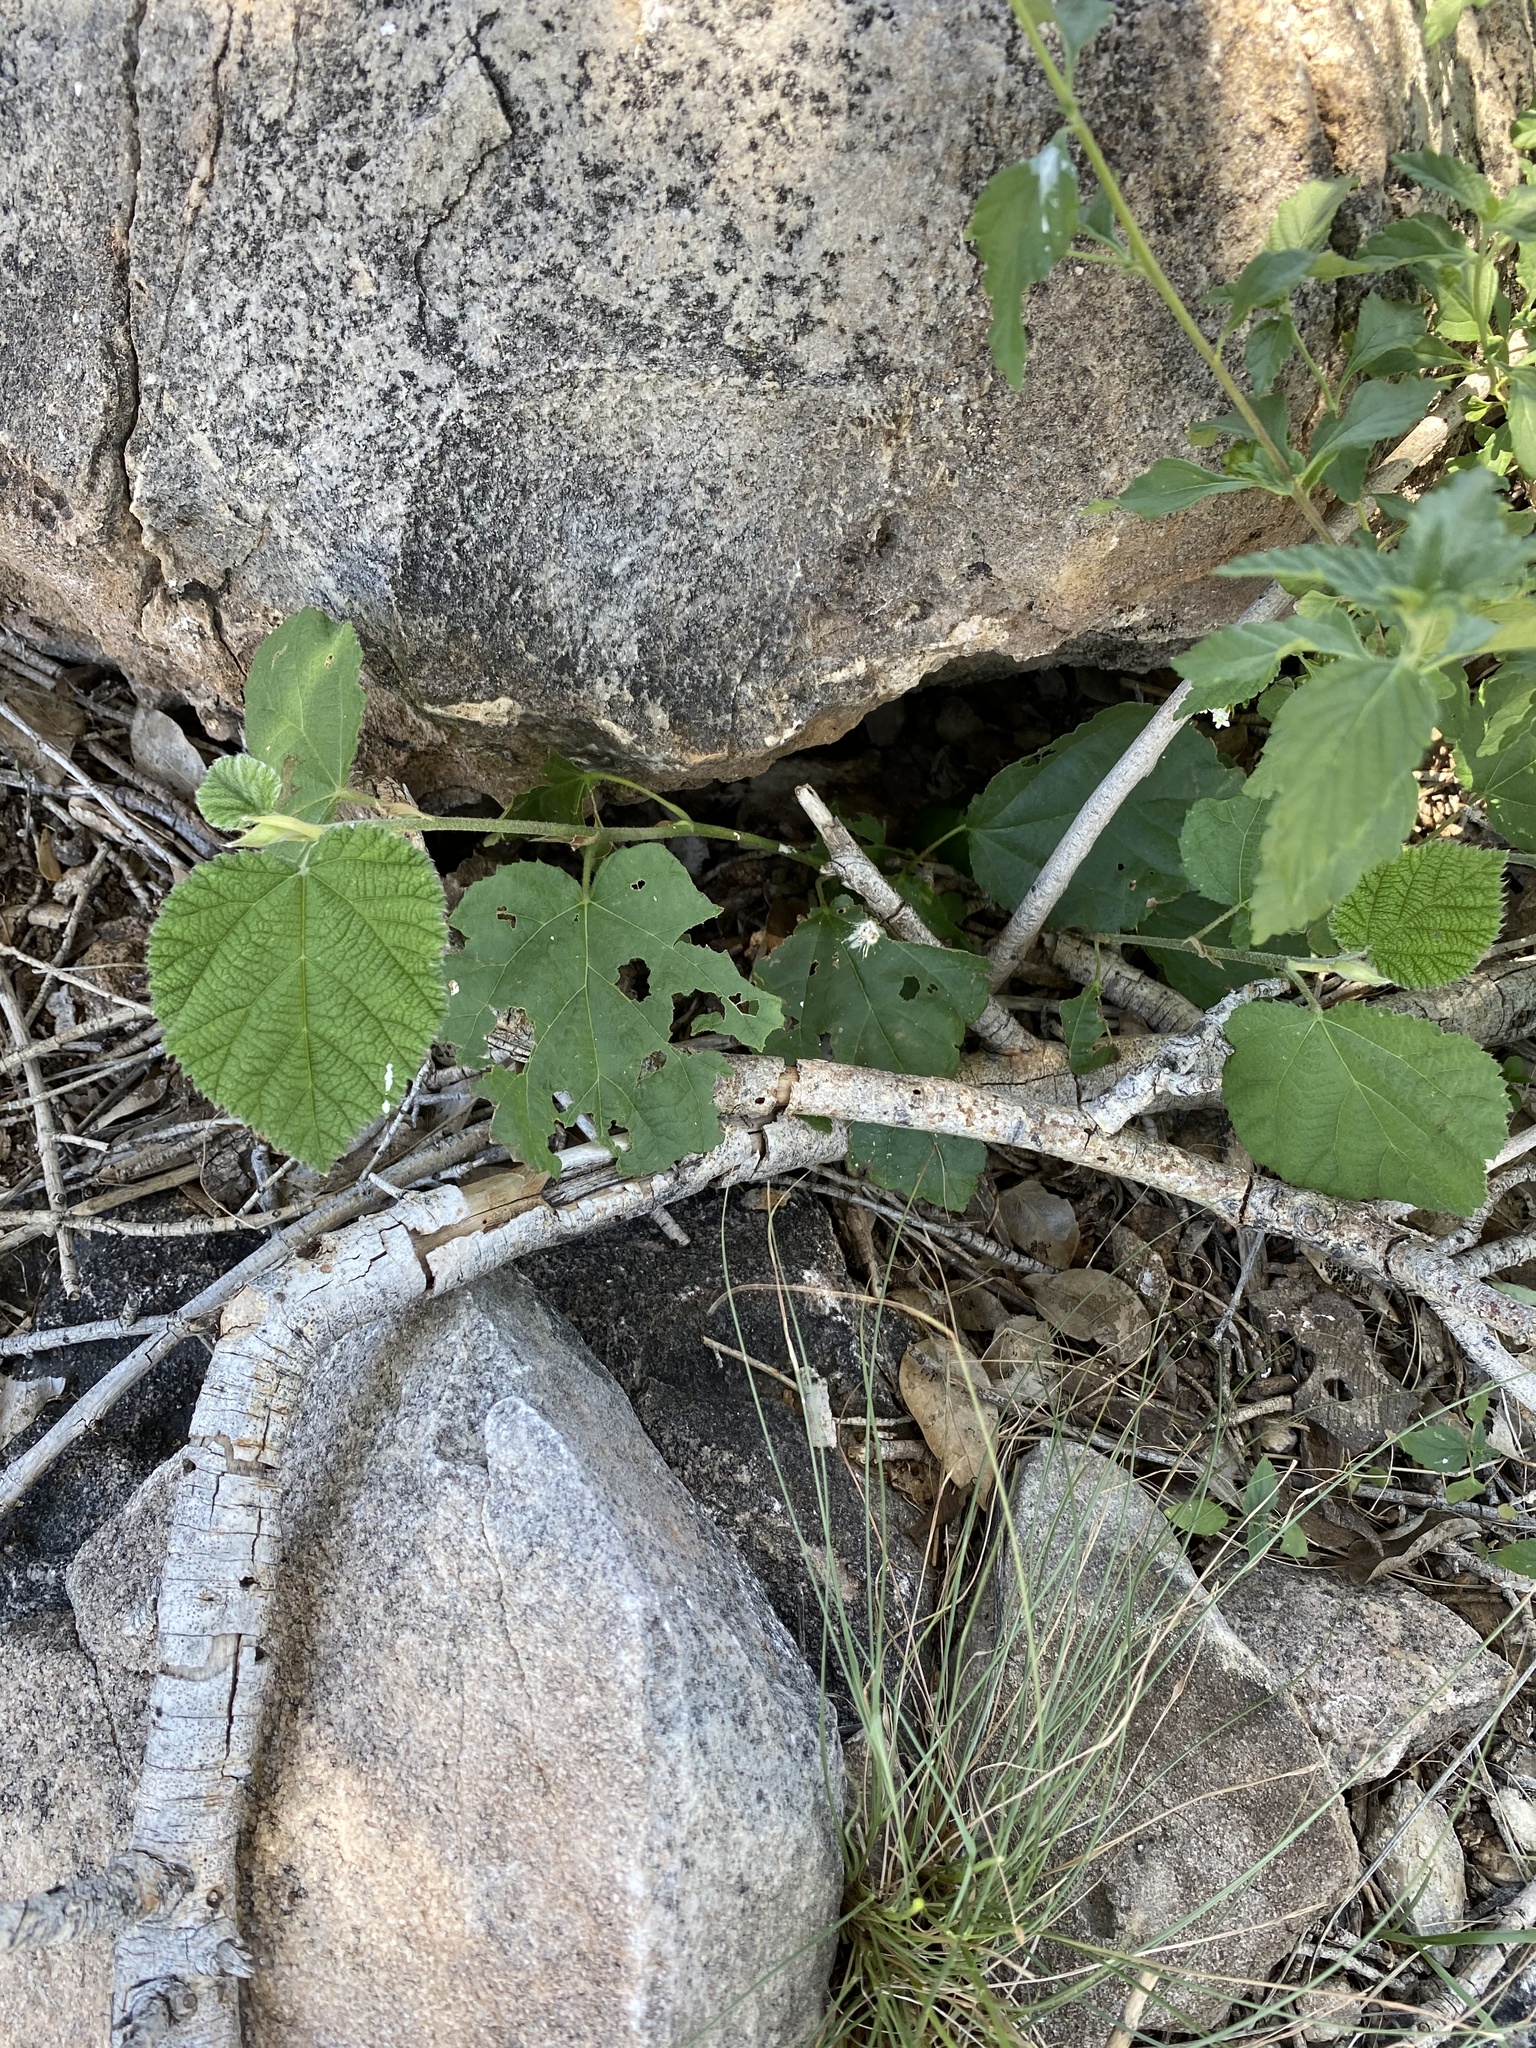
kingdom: Plantae
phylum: Tracheophyta
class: Magnoliopsida
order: Malvales
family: Malvaceae
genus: Grewia
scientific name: Grewia villosa
